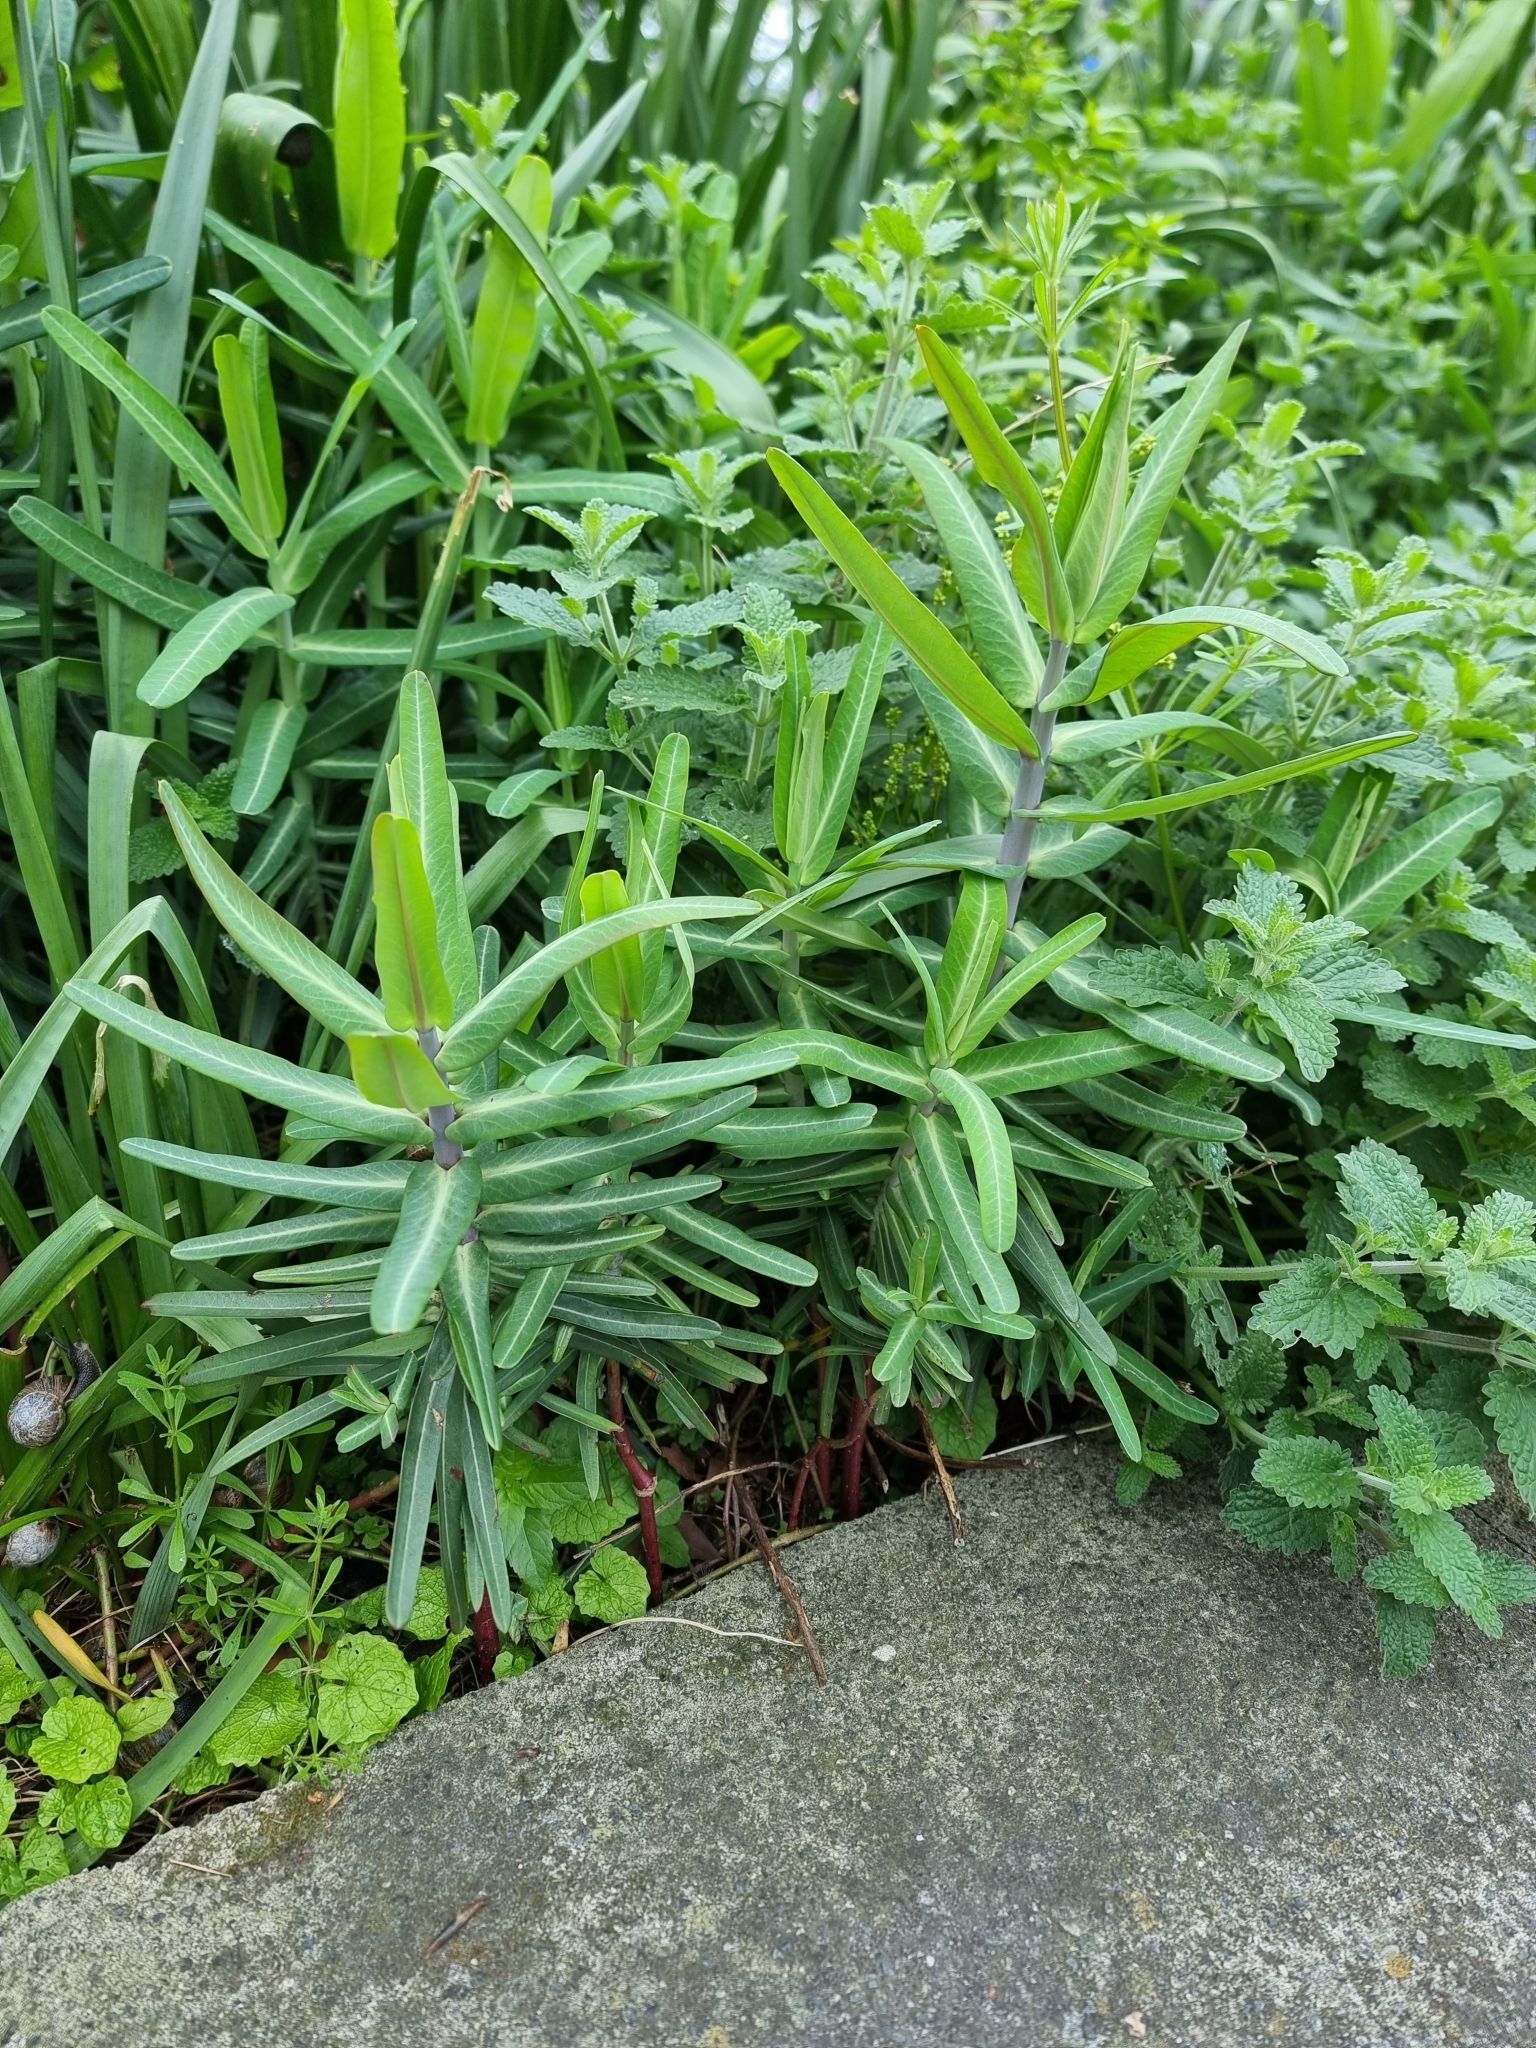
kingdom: Plantae
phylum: Tracheophyta
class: Magnoliopsida
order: Malpighiales
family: Euphorbiaceae
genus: Euphorbia
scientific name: Euphorbia lathyris
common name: Caper spurge
